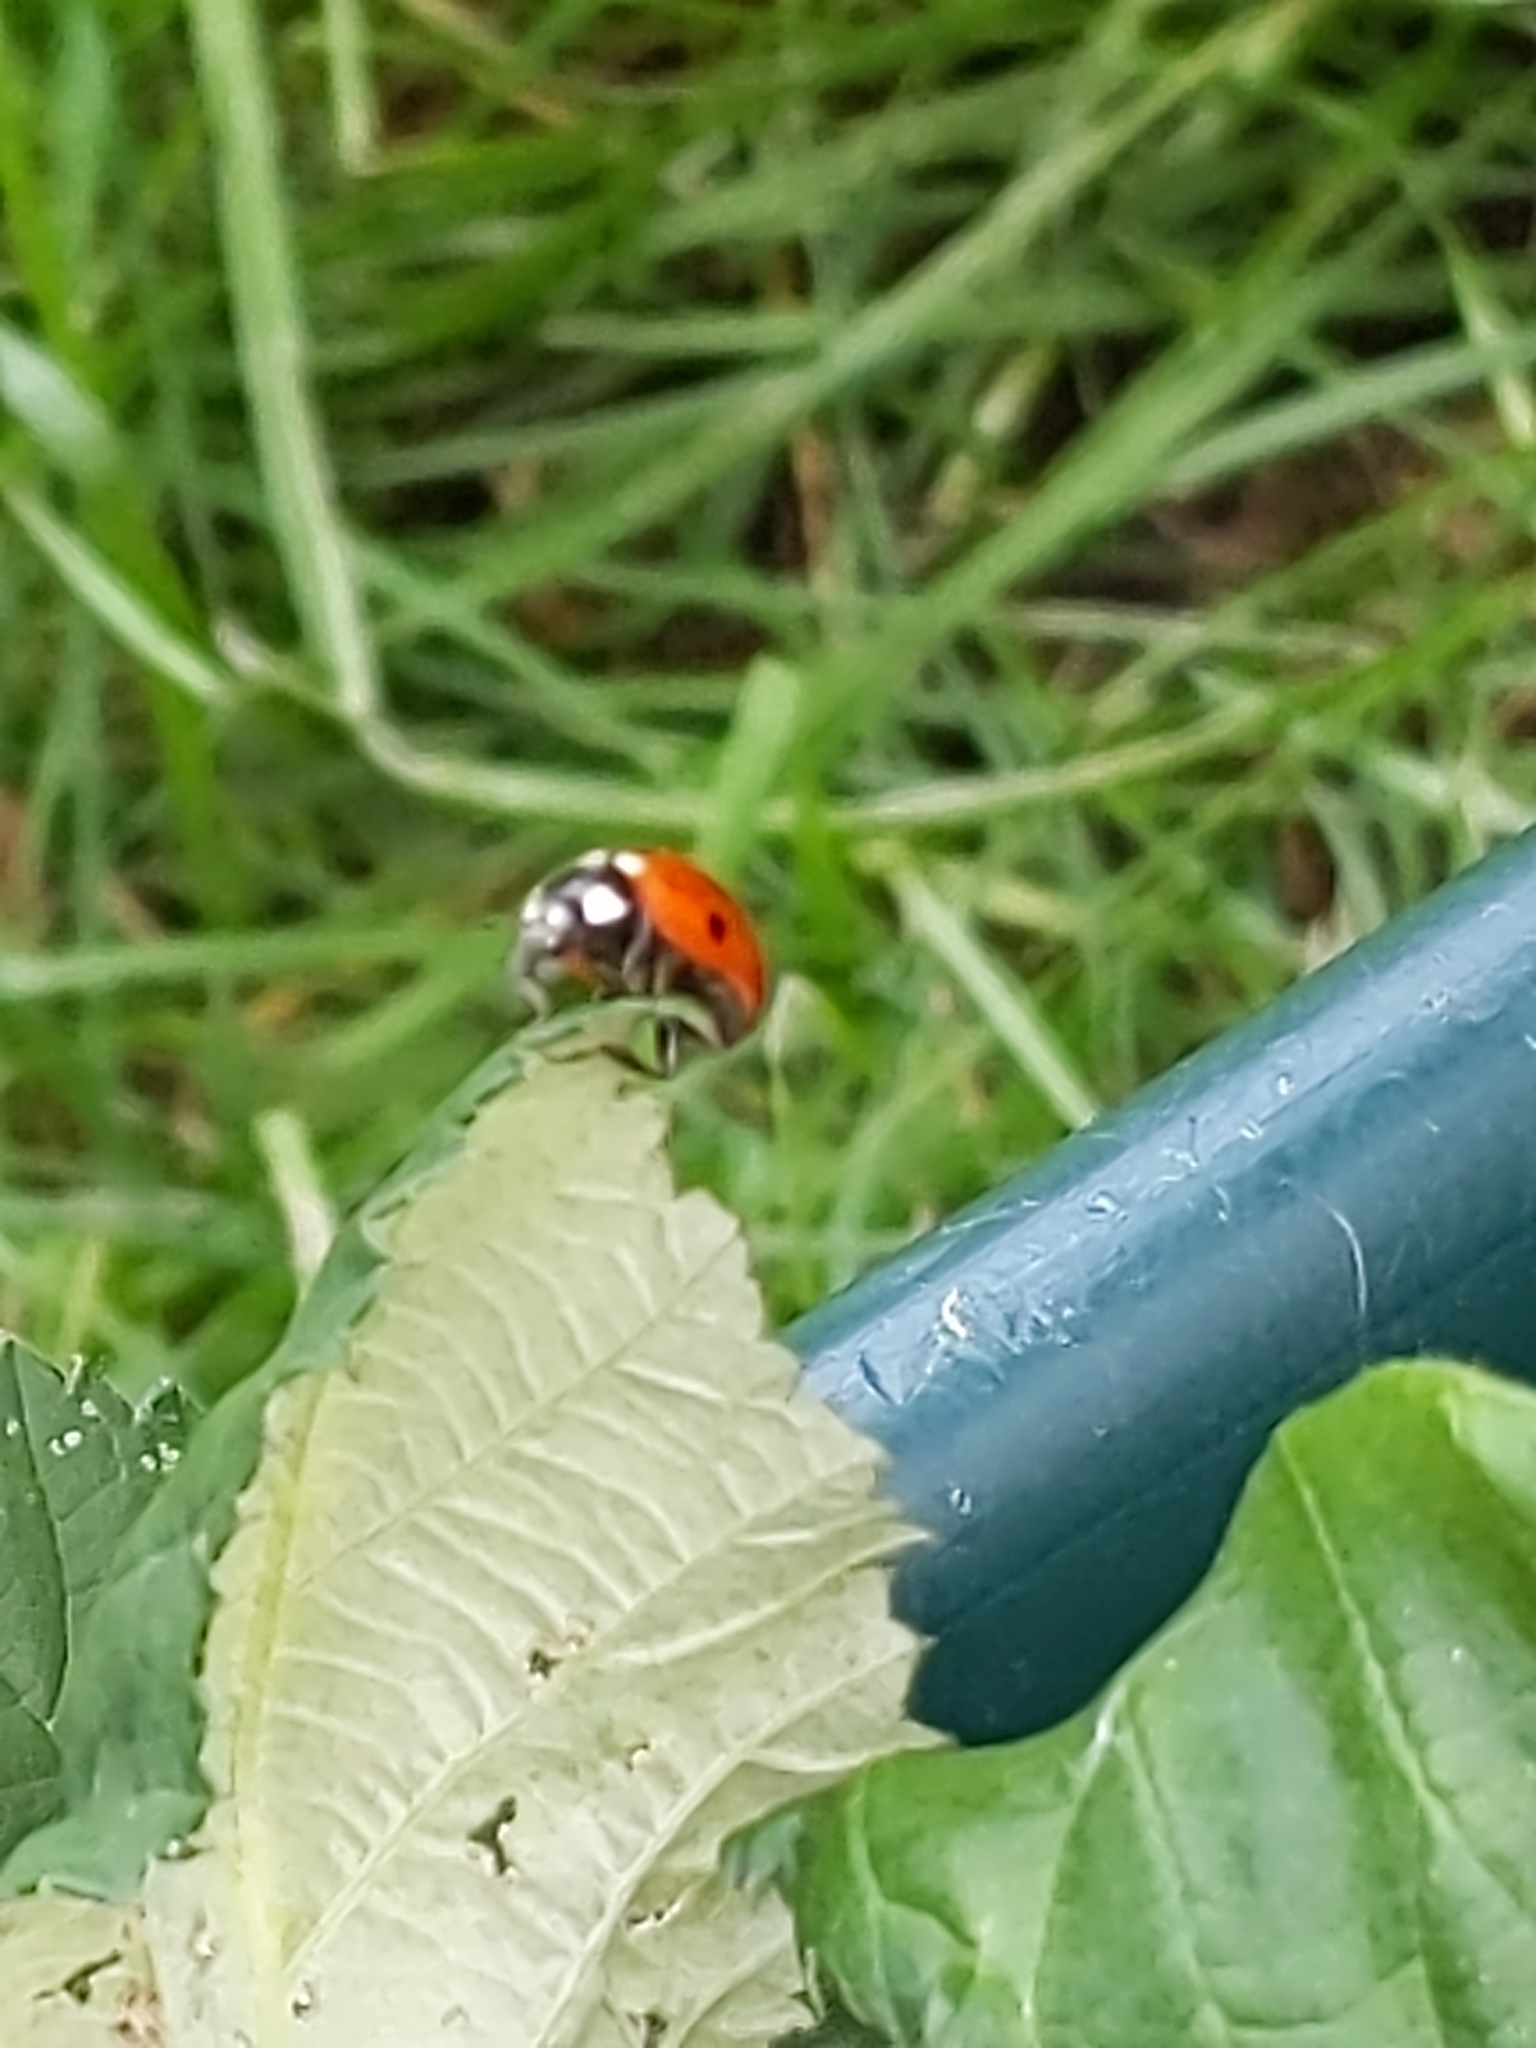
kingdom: Animalia
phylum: Arthropoda
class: Insecta
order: Coleoptera
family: Coccinellidae
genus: Coccinella
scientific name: Coccinella septempunctata
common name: Sevenspotted lady beetle
